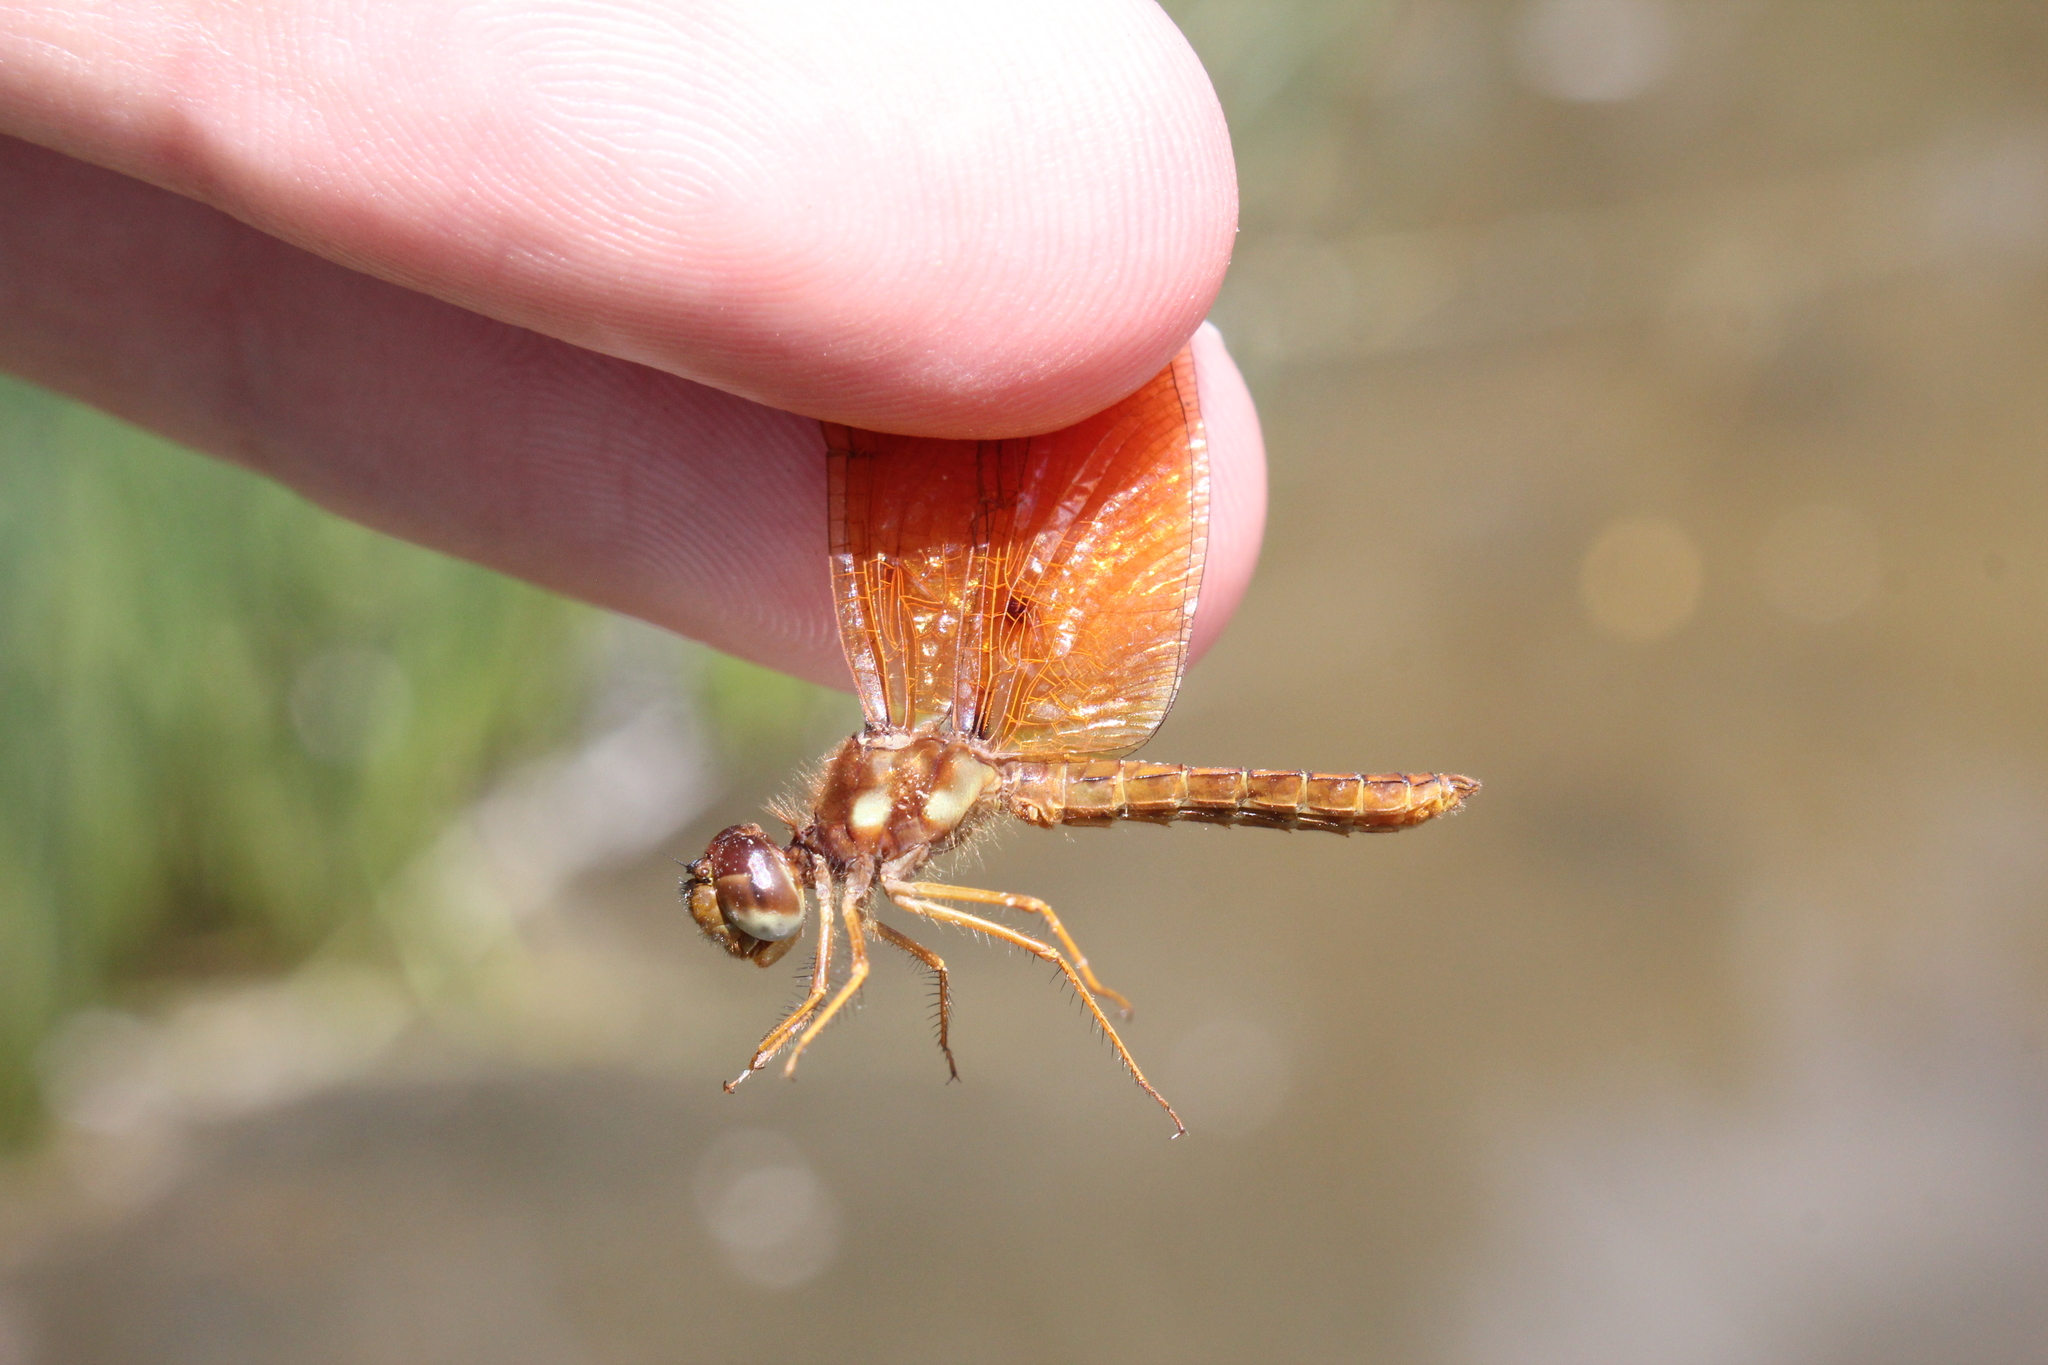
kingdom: Animalia
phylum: Arthropoda
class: Insecta
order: Odonata
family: Libellulidae
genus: Perithemis
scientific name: Perithemis tenera
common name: Eastern amberwing
